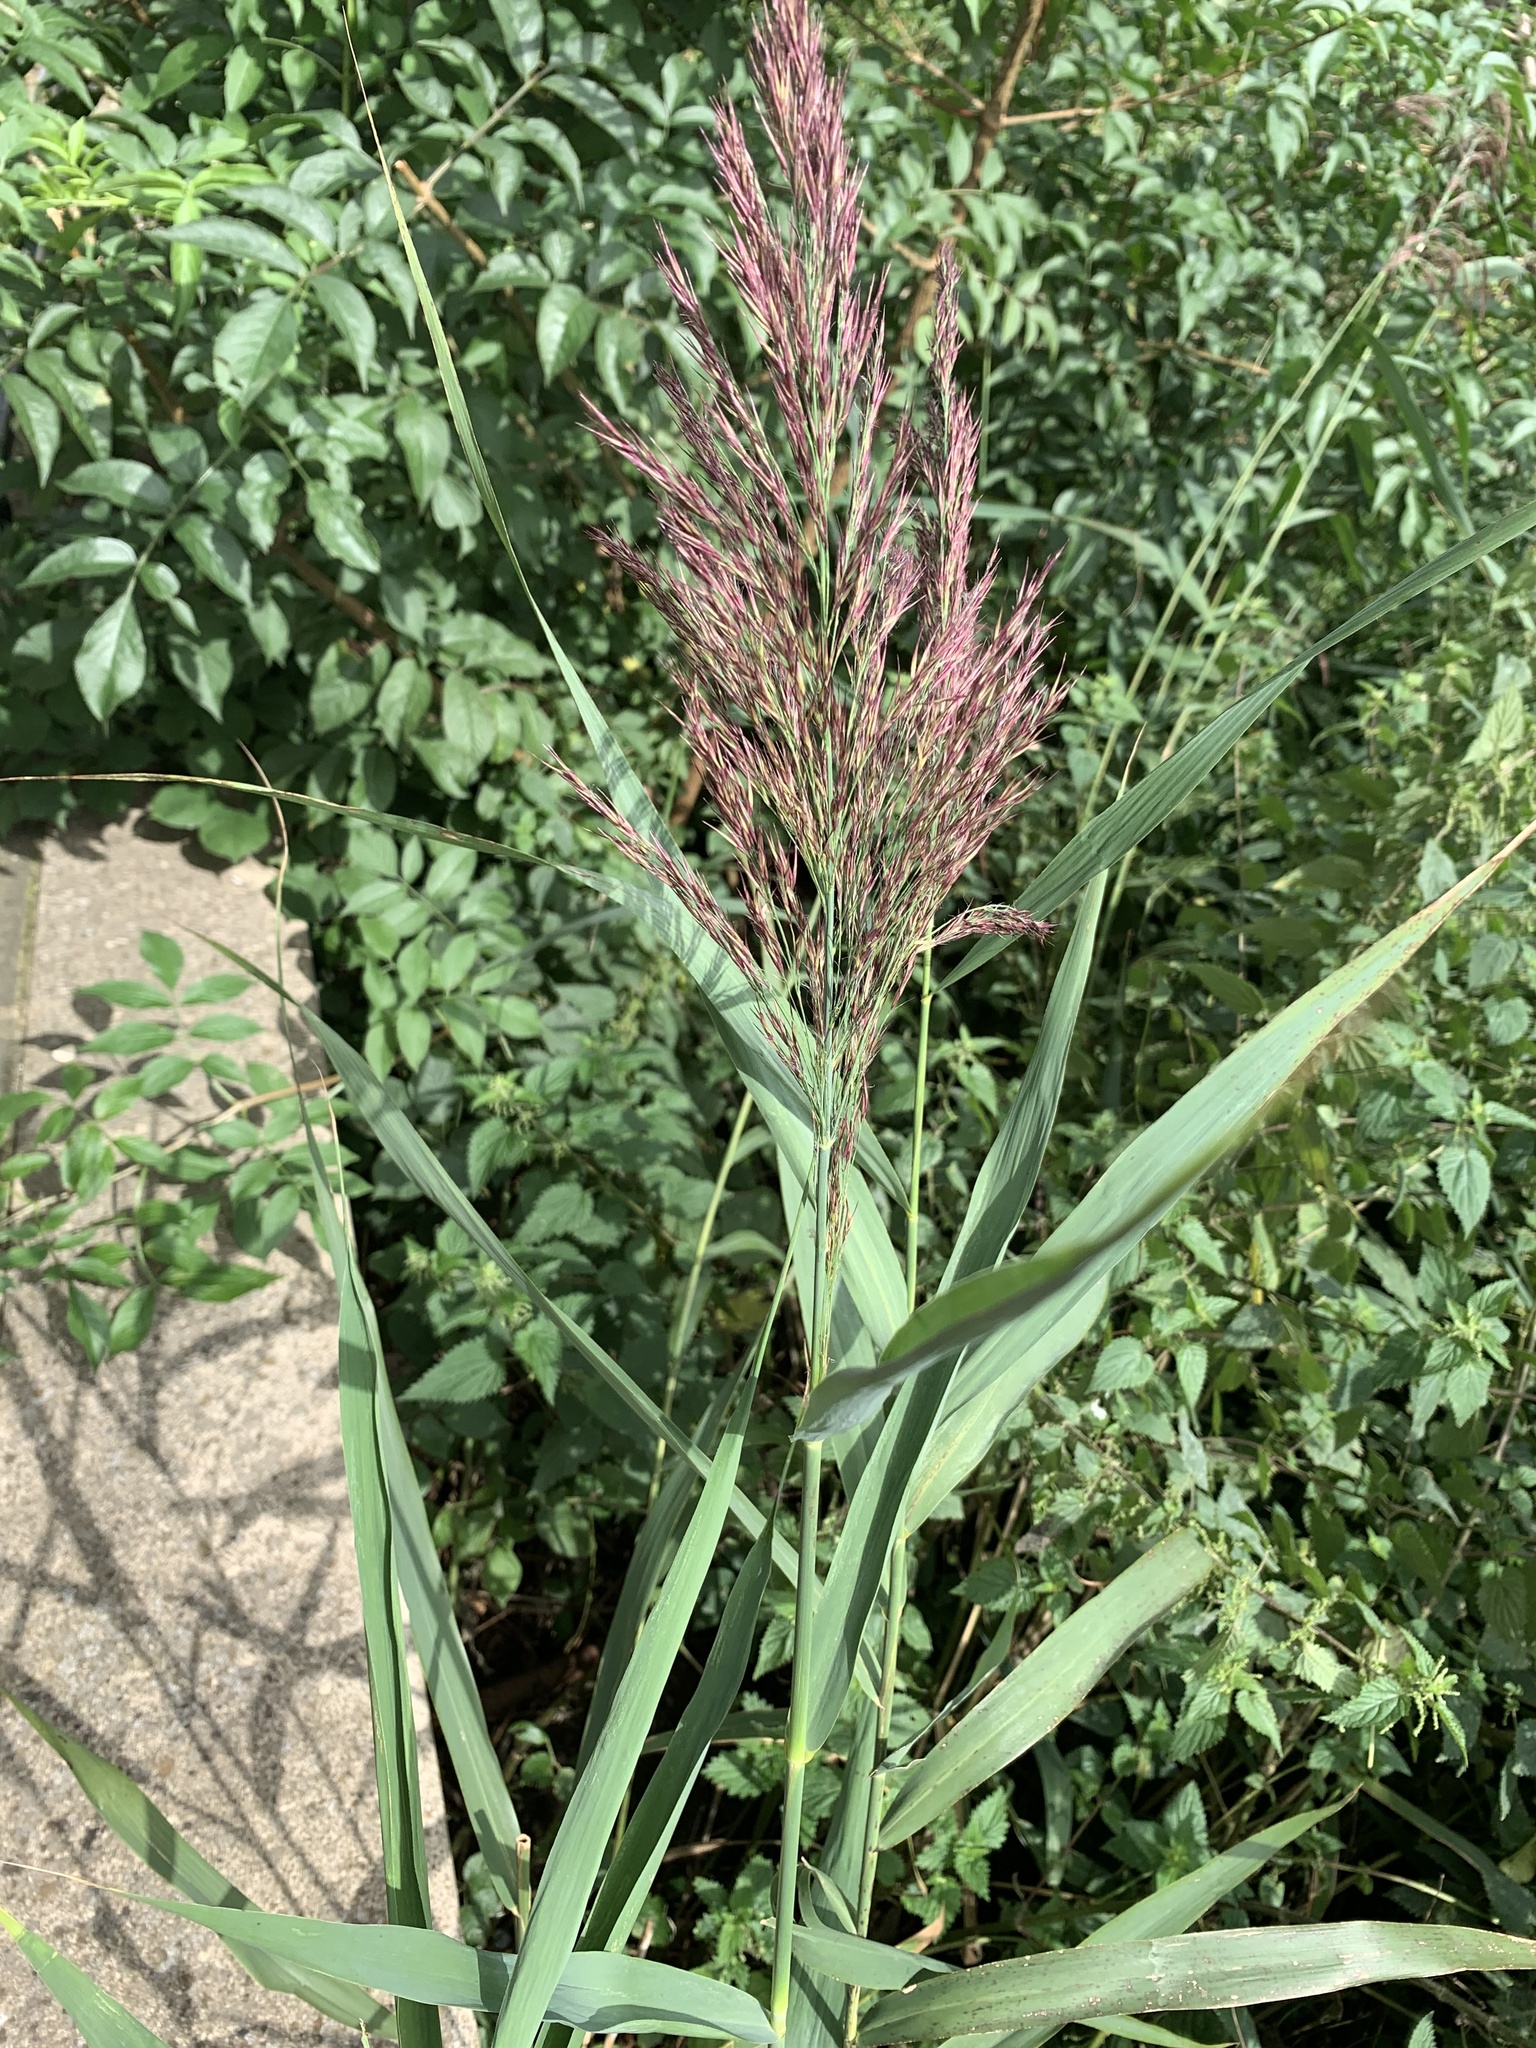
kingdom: Plantae
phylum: Tracheophyta
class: Liliopsida
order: Poales
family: Poaceae
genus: Phragmites
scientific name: Phragmites australis
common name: Common reed
